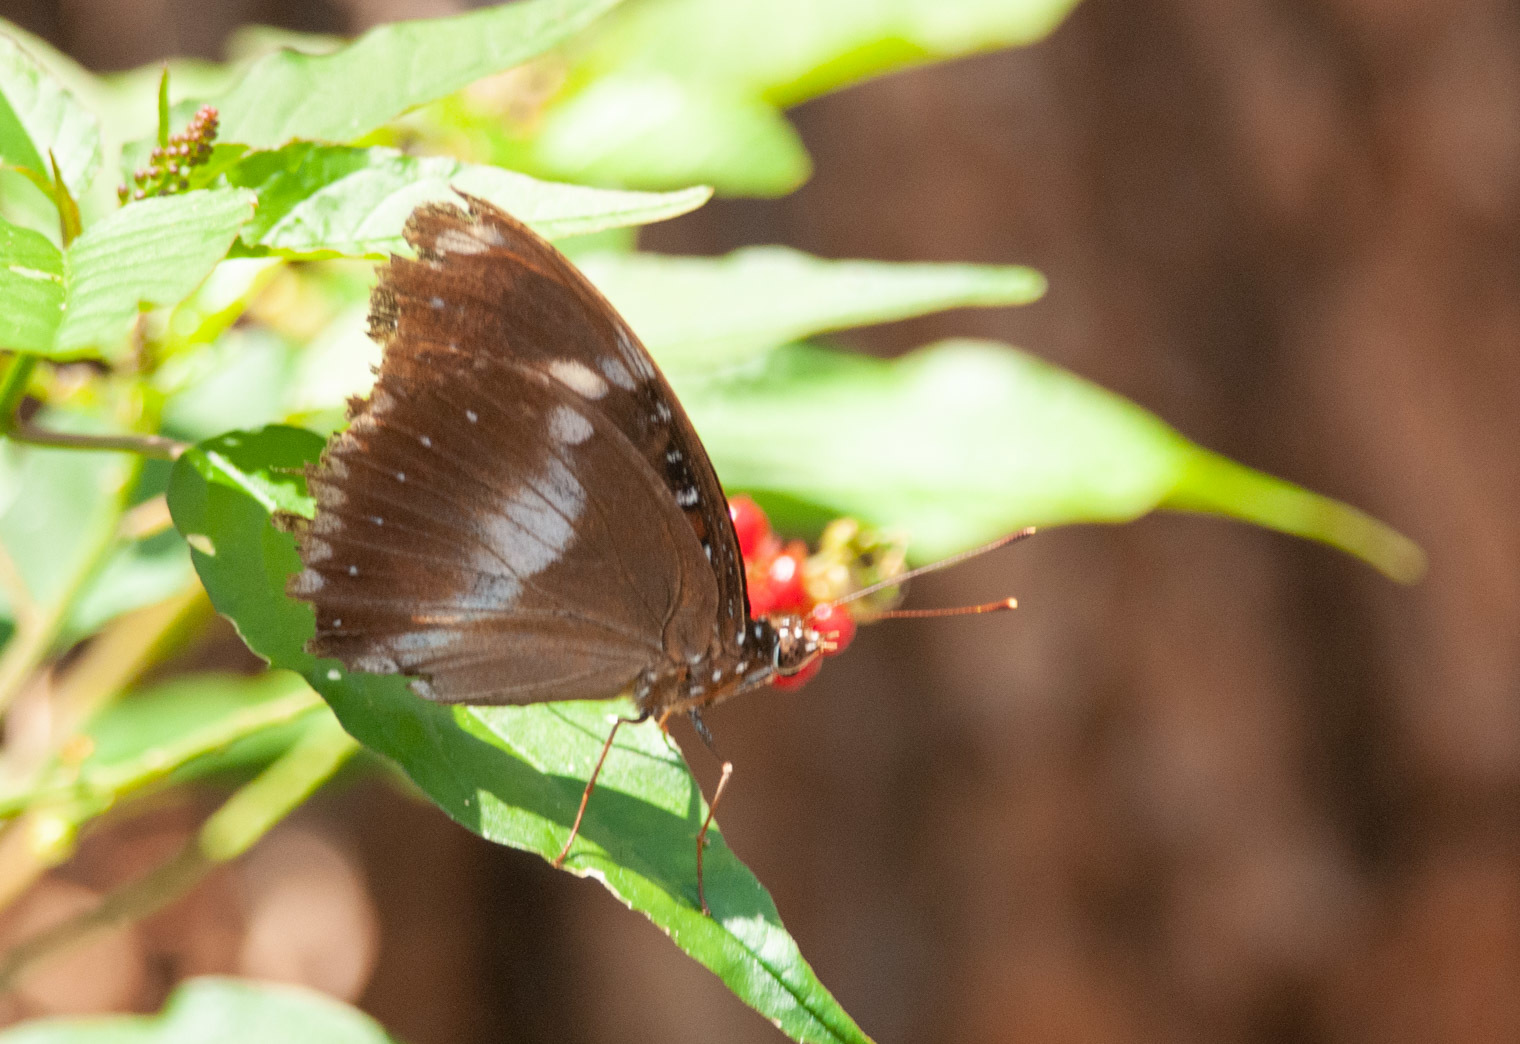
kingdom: Animalia
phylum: Arthropoda
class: Insecta
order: Lepidoptera
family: Nymphalidae
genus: Hypolimnas
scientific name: Hypolimnas bolina
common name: Great eggfly
